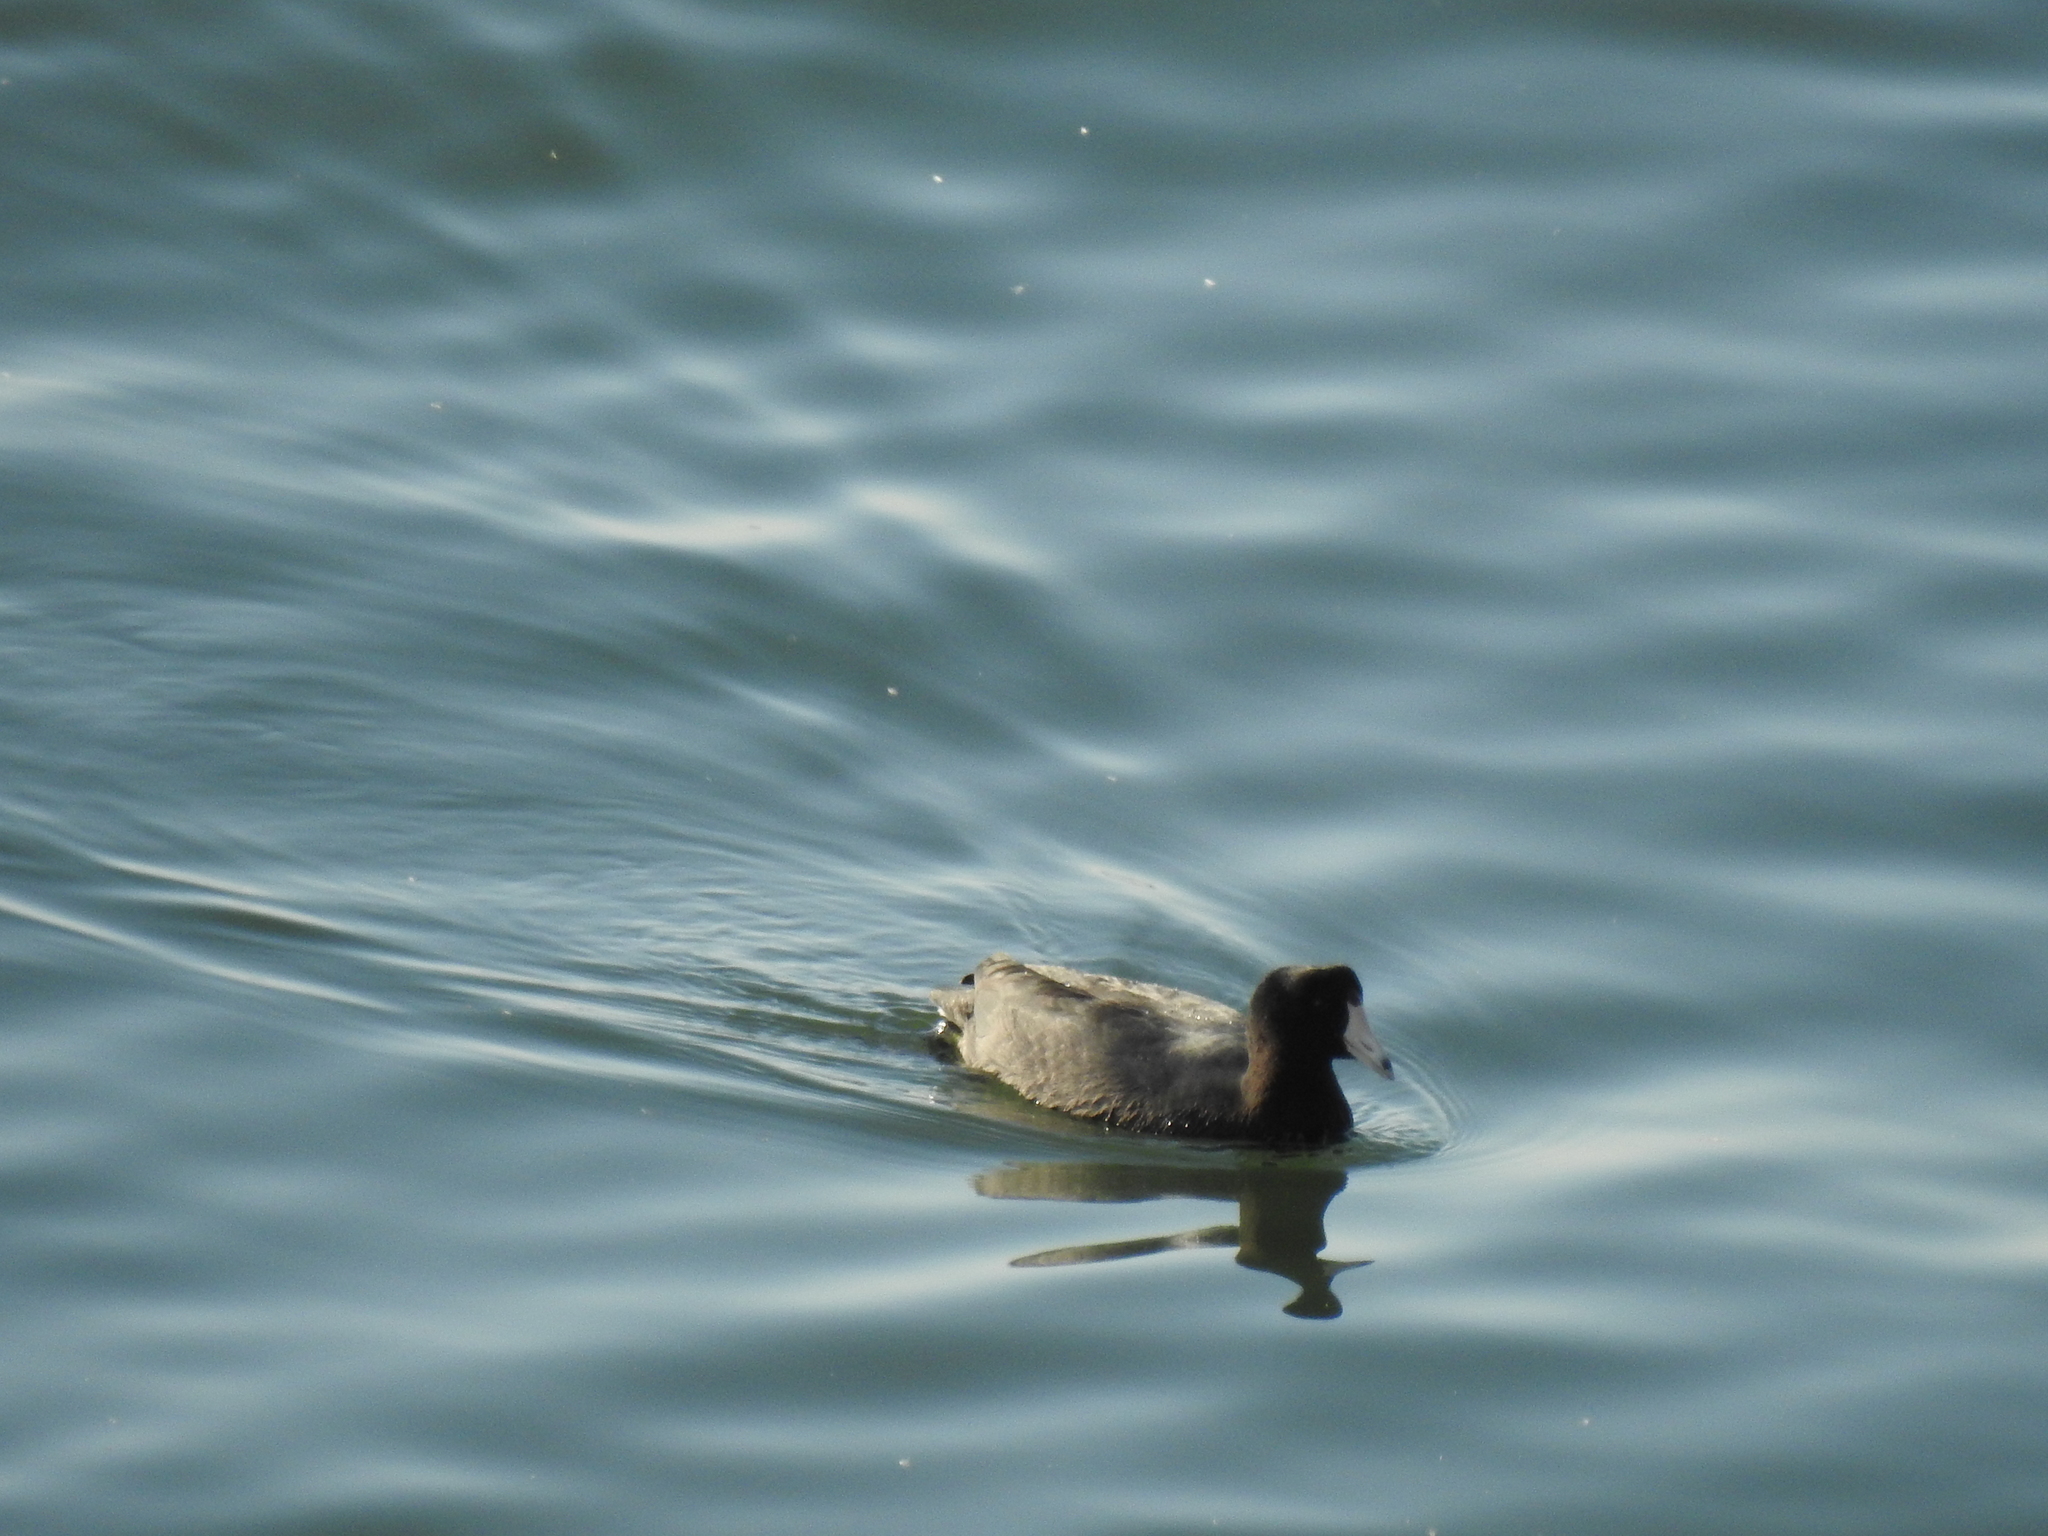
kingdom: Animalia
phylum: Chordata
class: Aves
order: Gruiformes
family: Rallidae
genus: Fulica
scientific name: Fulica americana
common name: American coot
